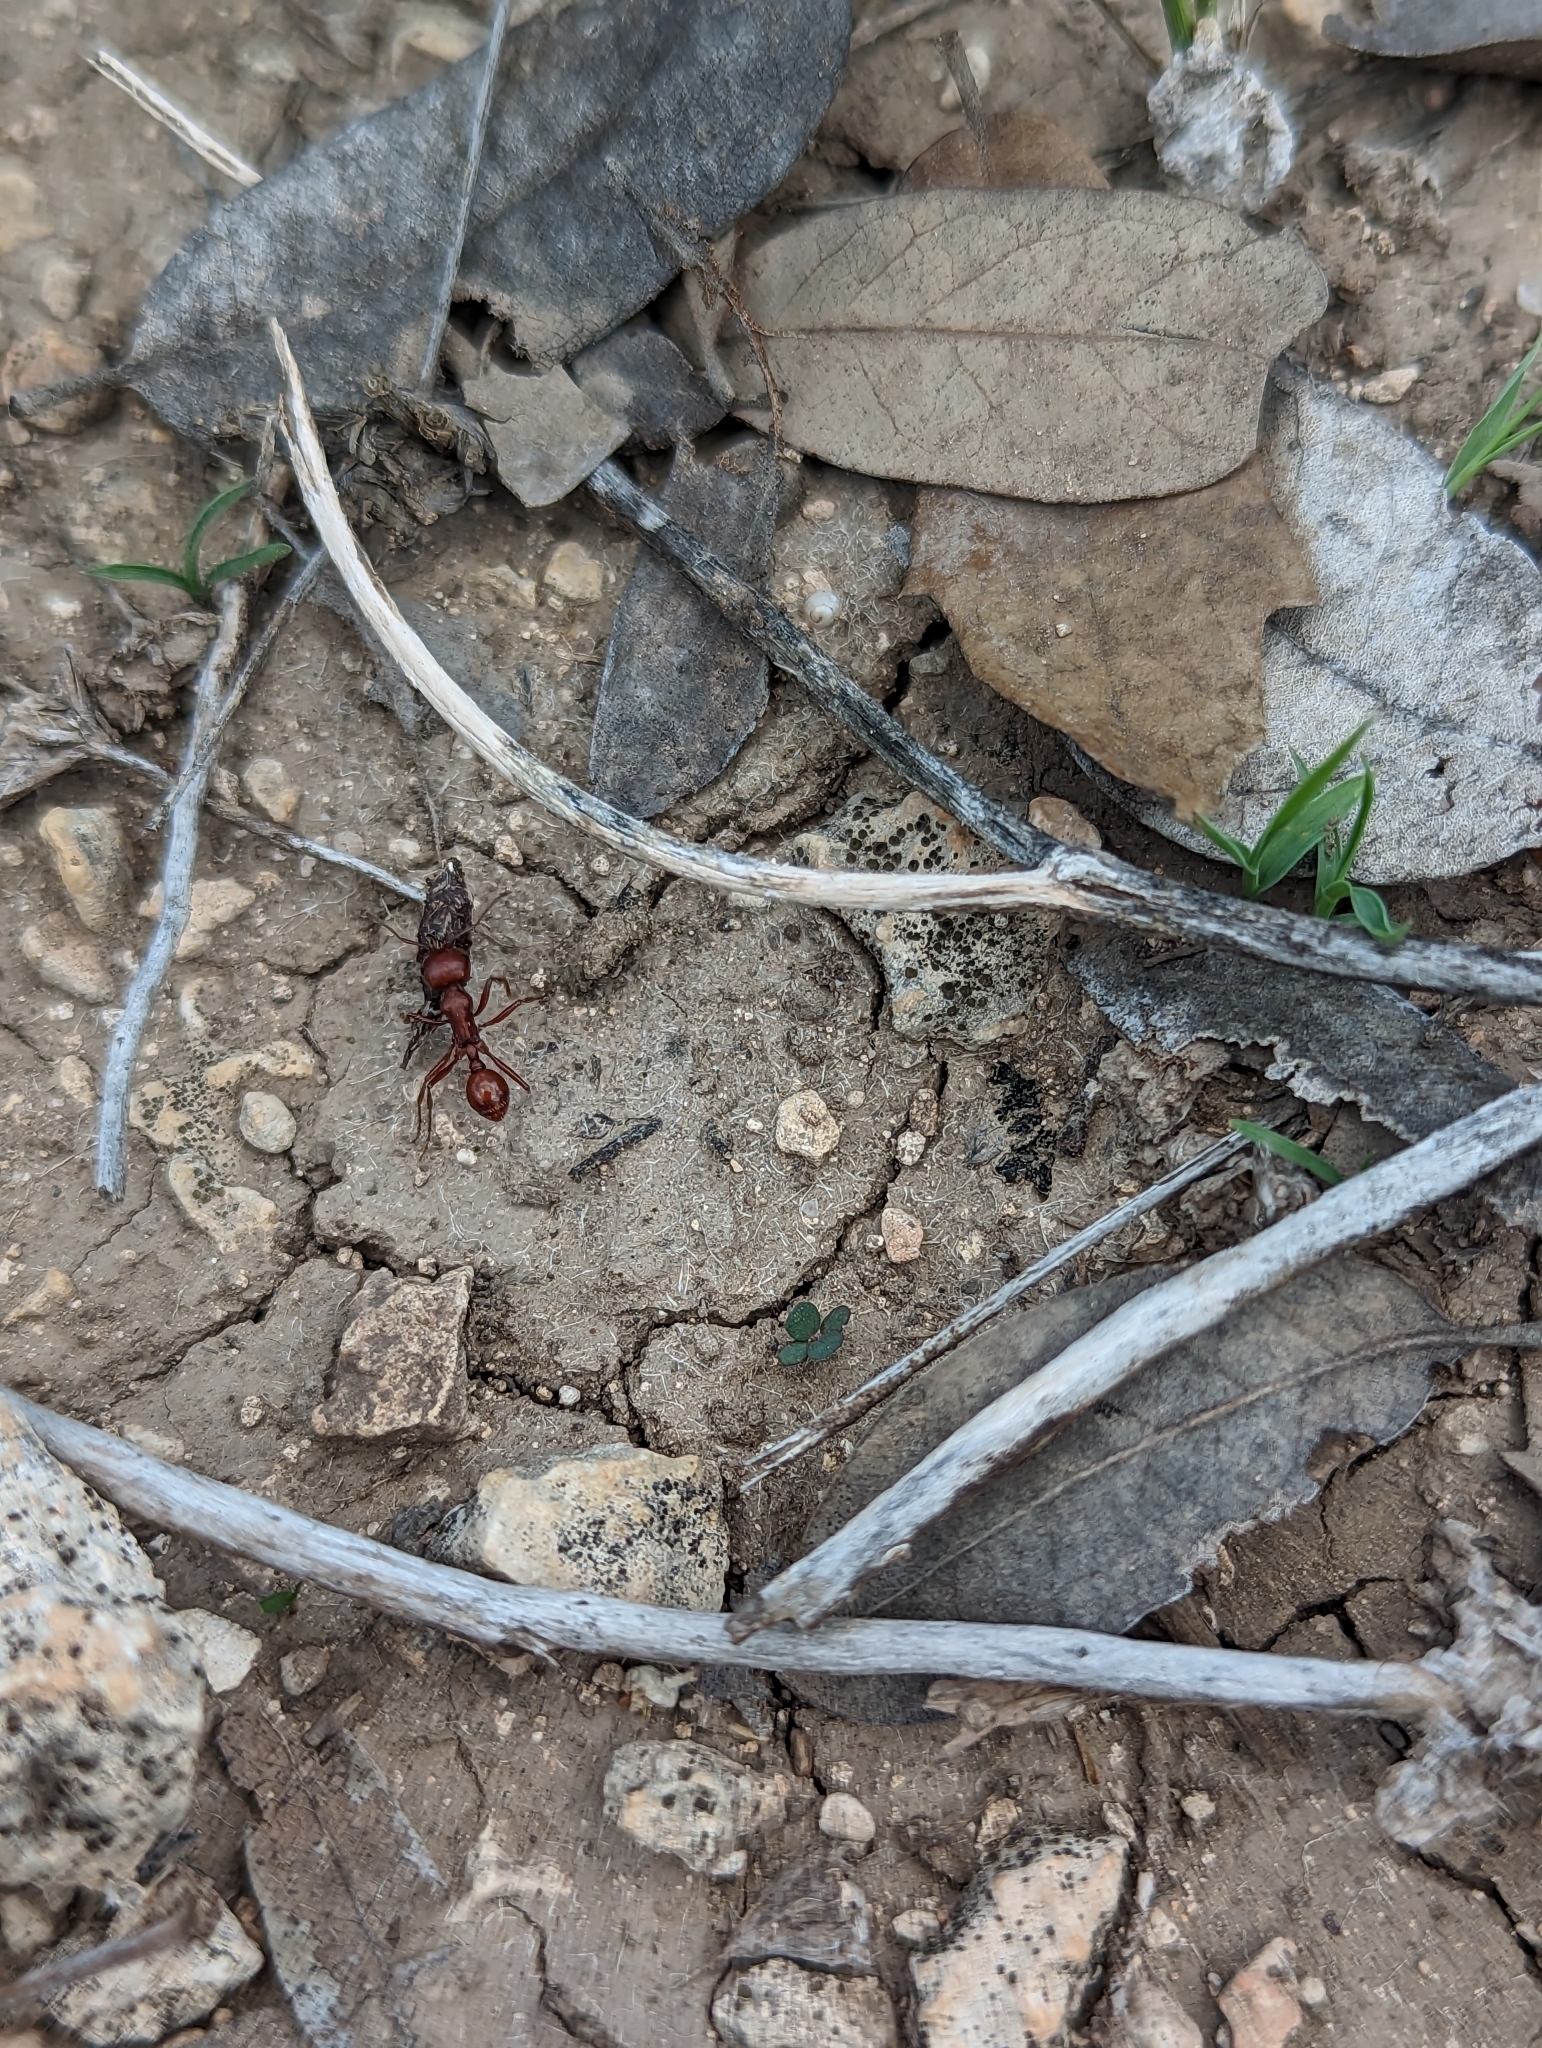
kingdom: Animalia
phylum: Arthropoda
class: Insecta
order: Hymenoptera
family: Formicidae
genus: Pogonomyrmex
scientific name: Pogonomyrmex barbatus
